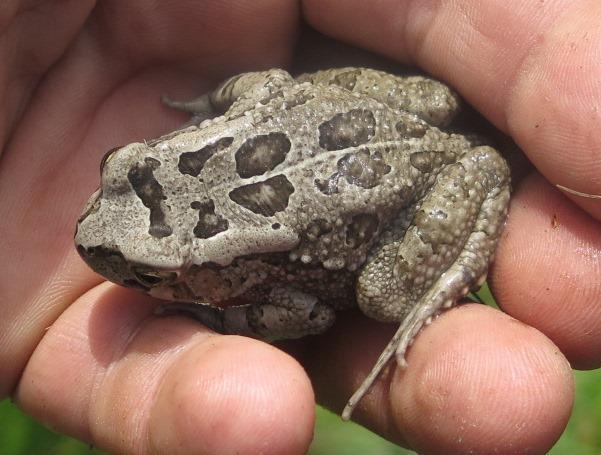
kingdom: Animalia
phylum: Chordata
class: Amphibia
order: Anura
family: Bufonidae
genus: Sclerophrys
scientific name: Sclerophrys capensis
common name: Ranger’s toad
